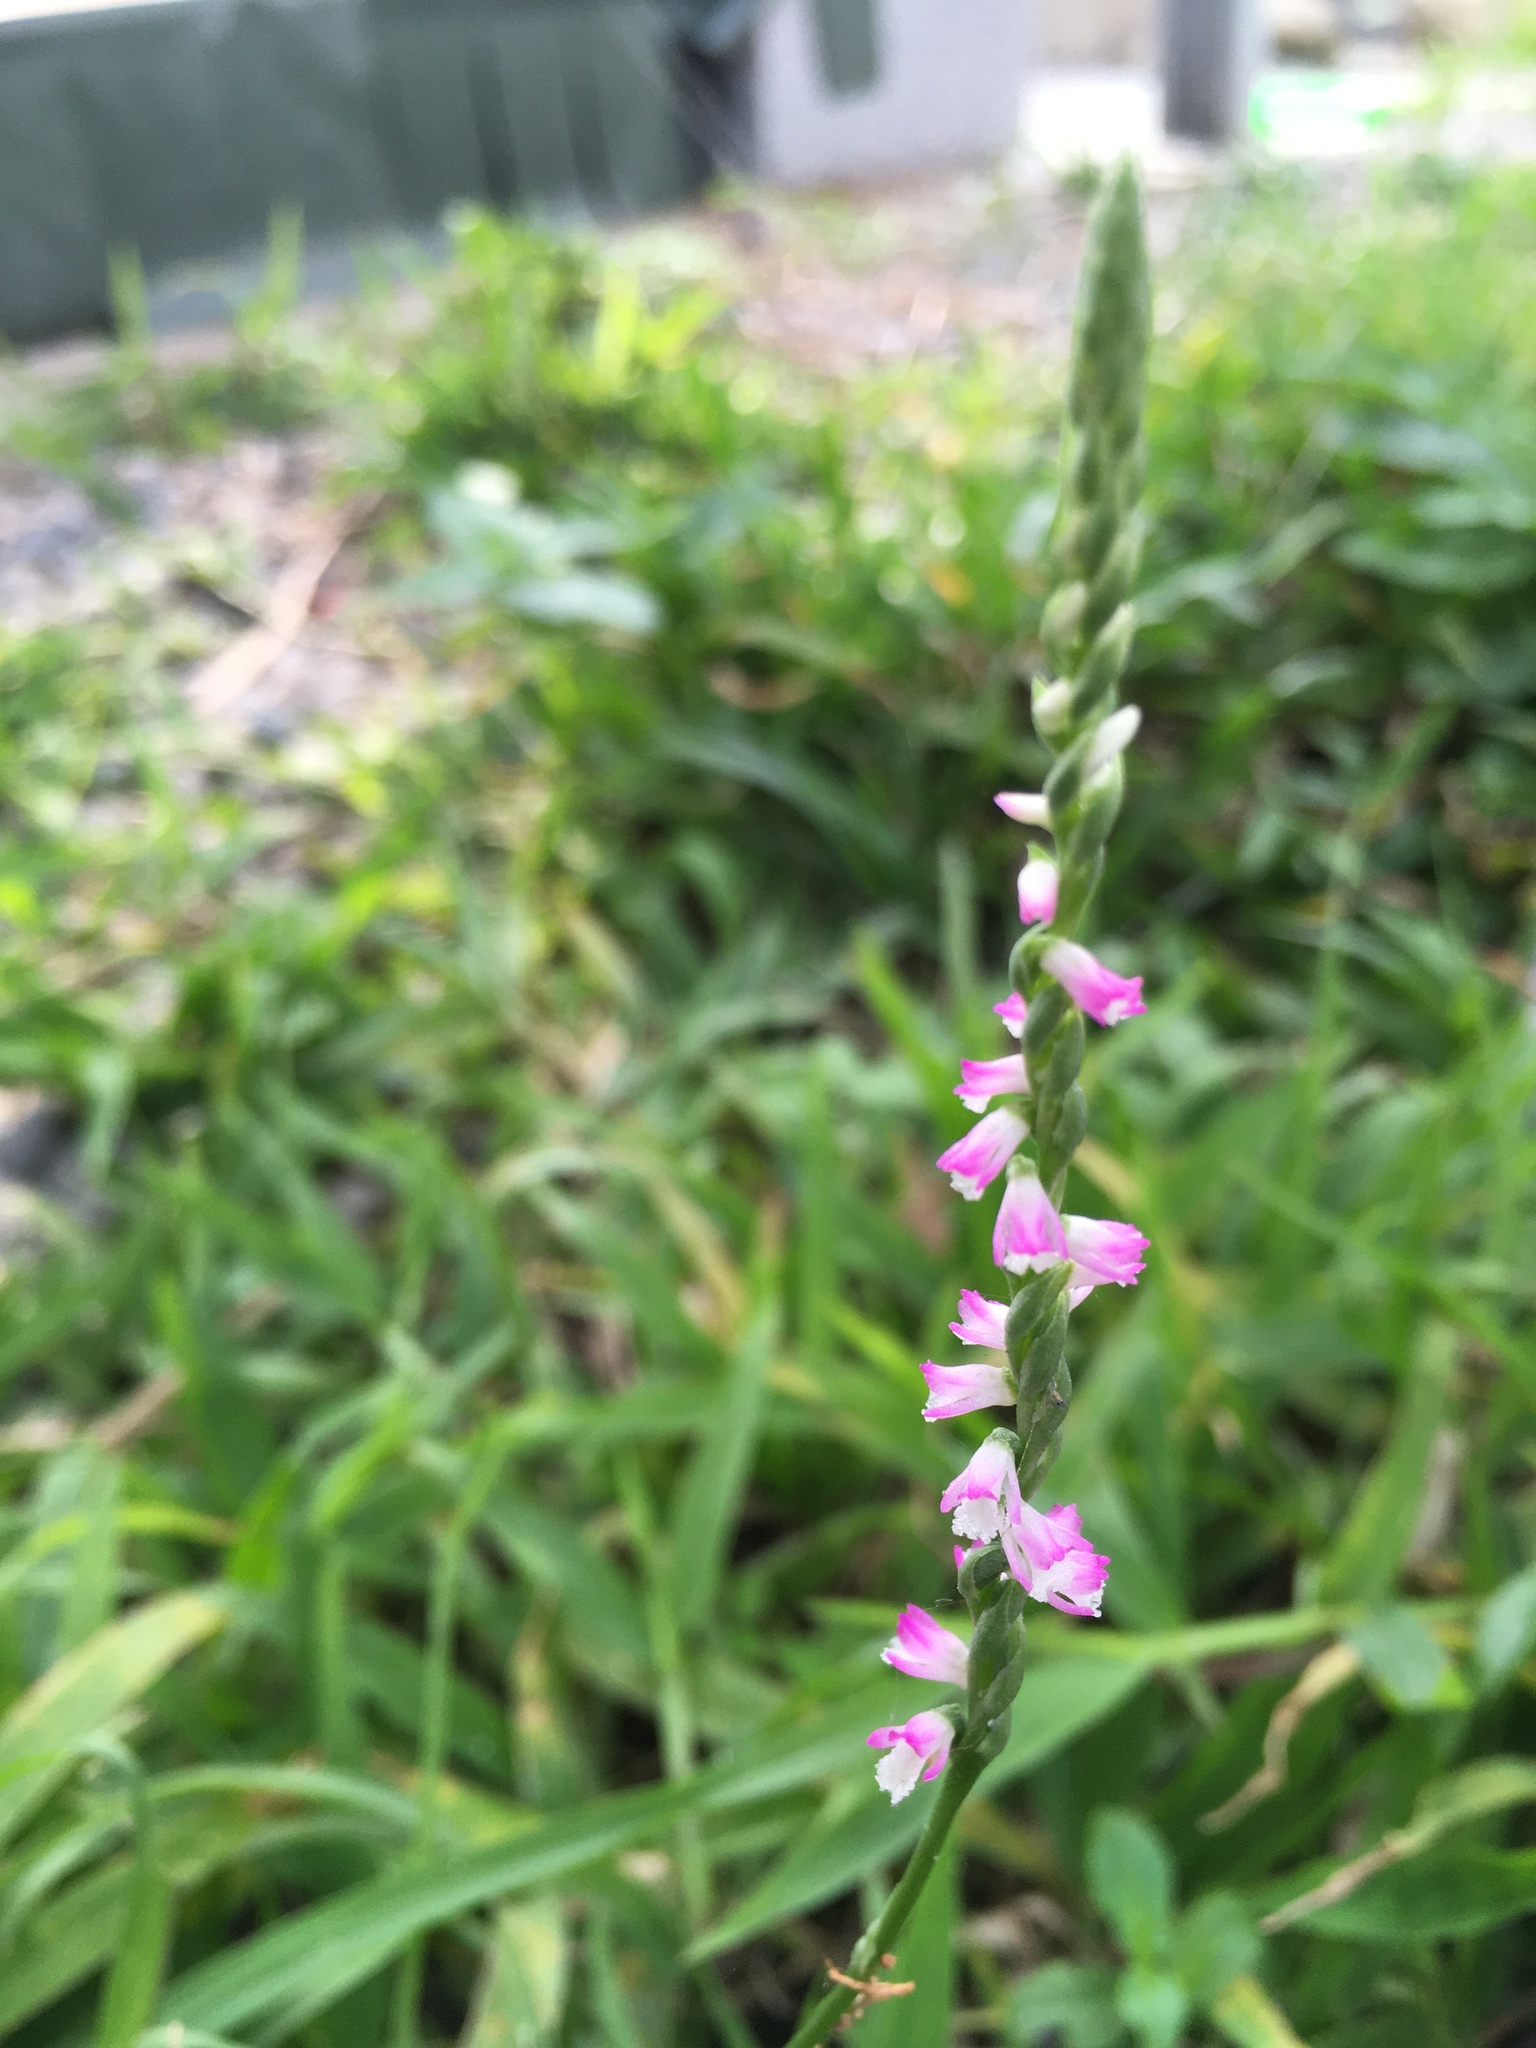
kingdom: Plantae
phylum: Tracheophyta
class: Liliopsida
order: Asparagales
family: Orchidaceae
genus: Spiranthes
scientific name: Spiranthes sinensis
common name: Chinese spiranthes
